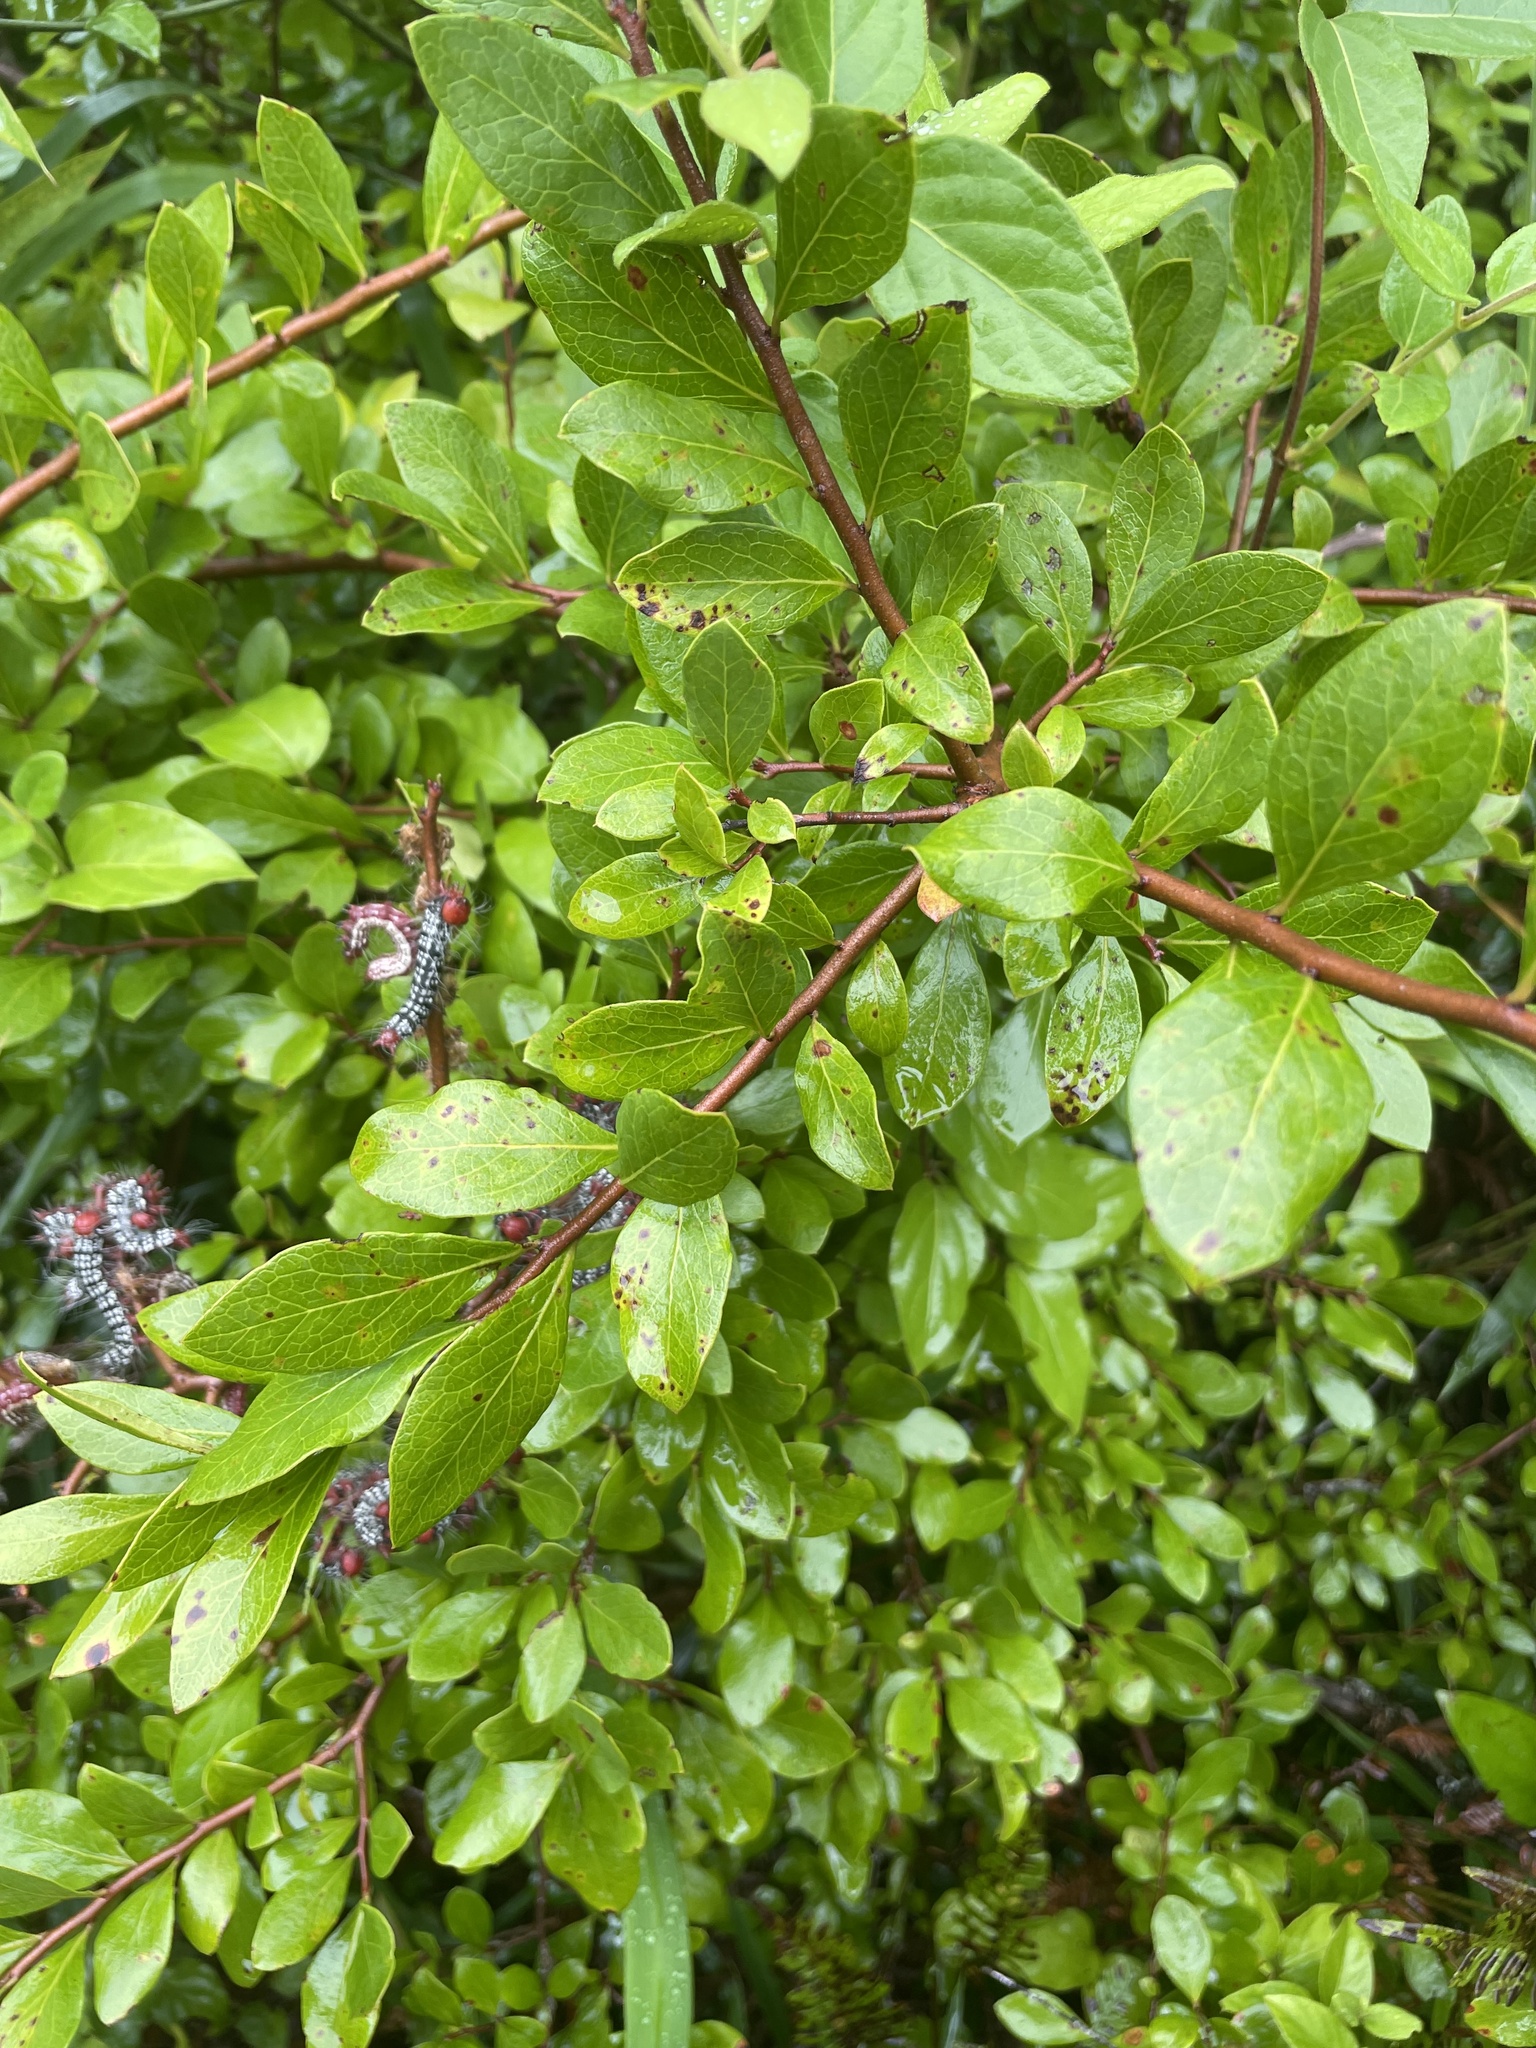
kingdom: Plantae
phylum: Tracheophyta
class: Magnoliopsida
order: Ericales
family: Ericaceae
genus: Vaccinium
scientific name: Vaccinium arboreum
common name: Farkleberry
